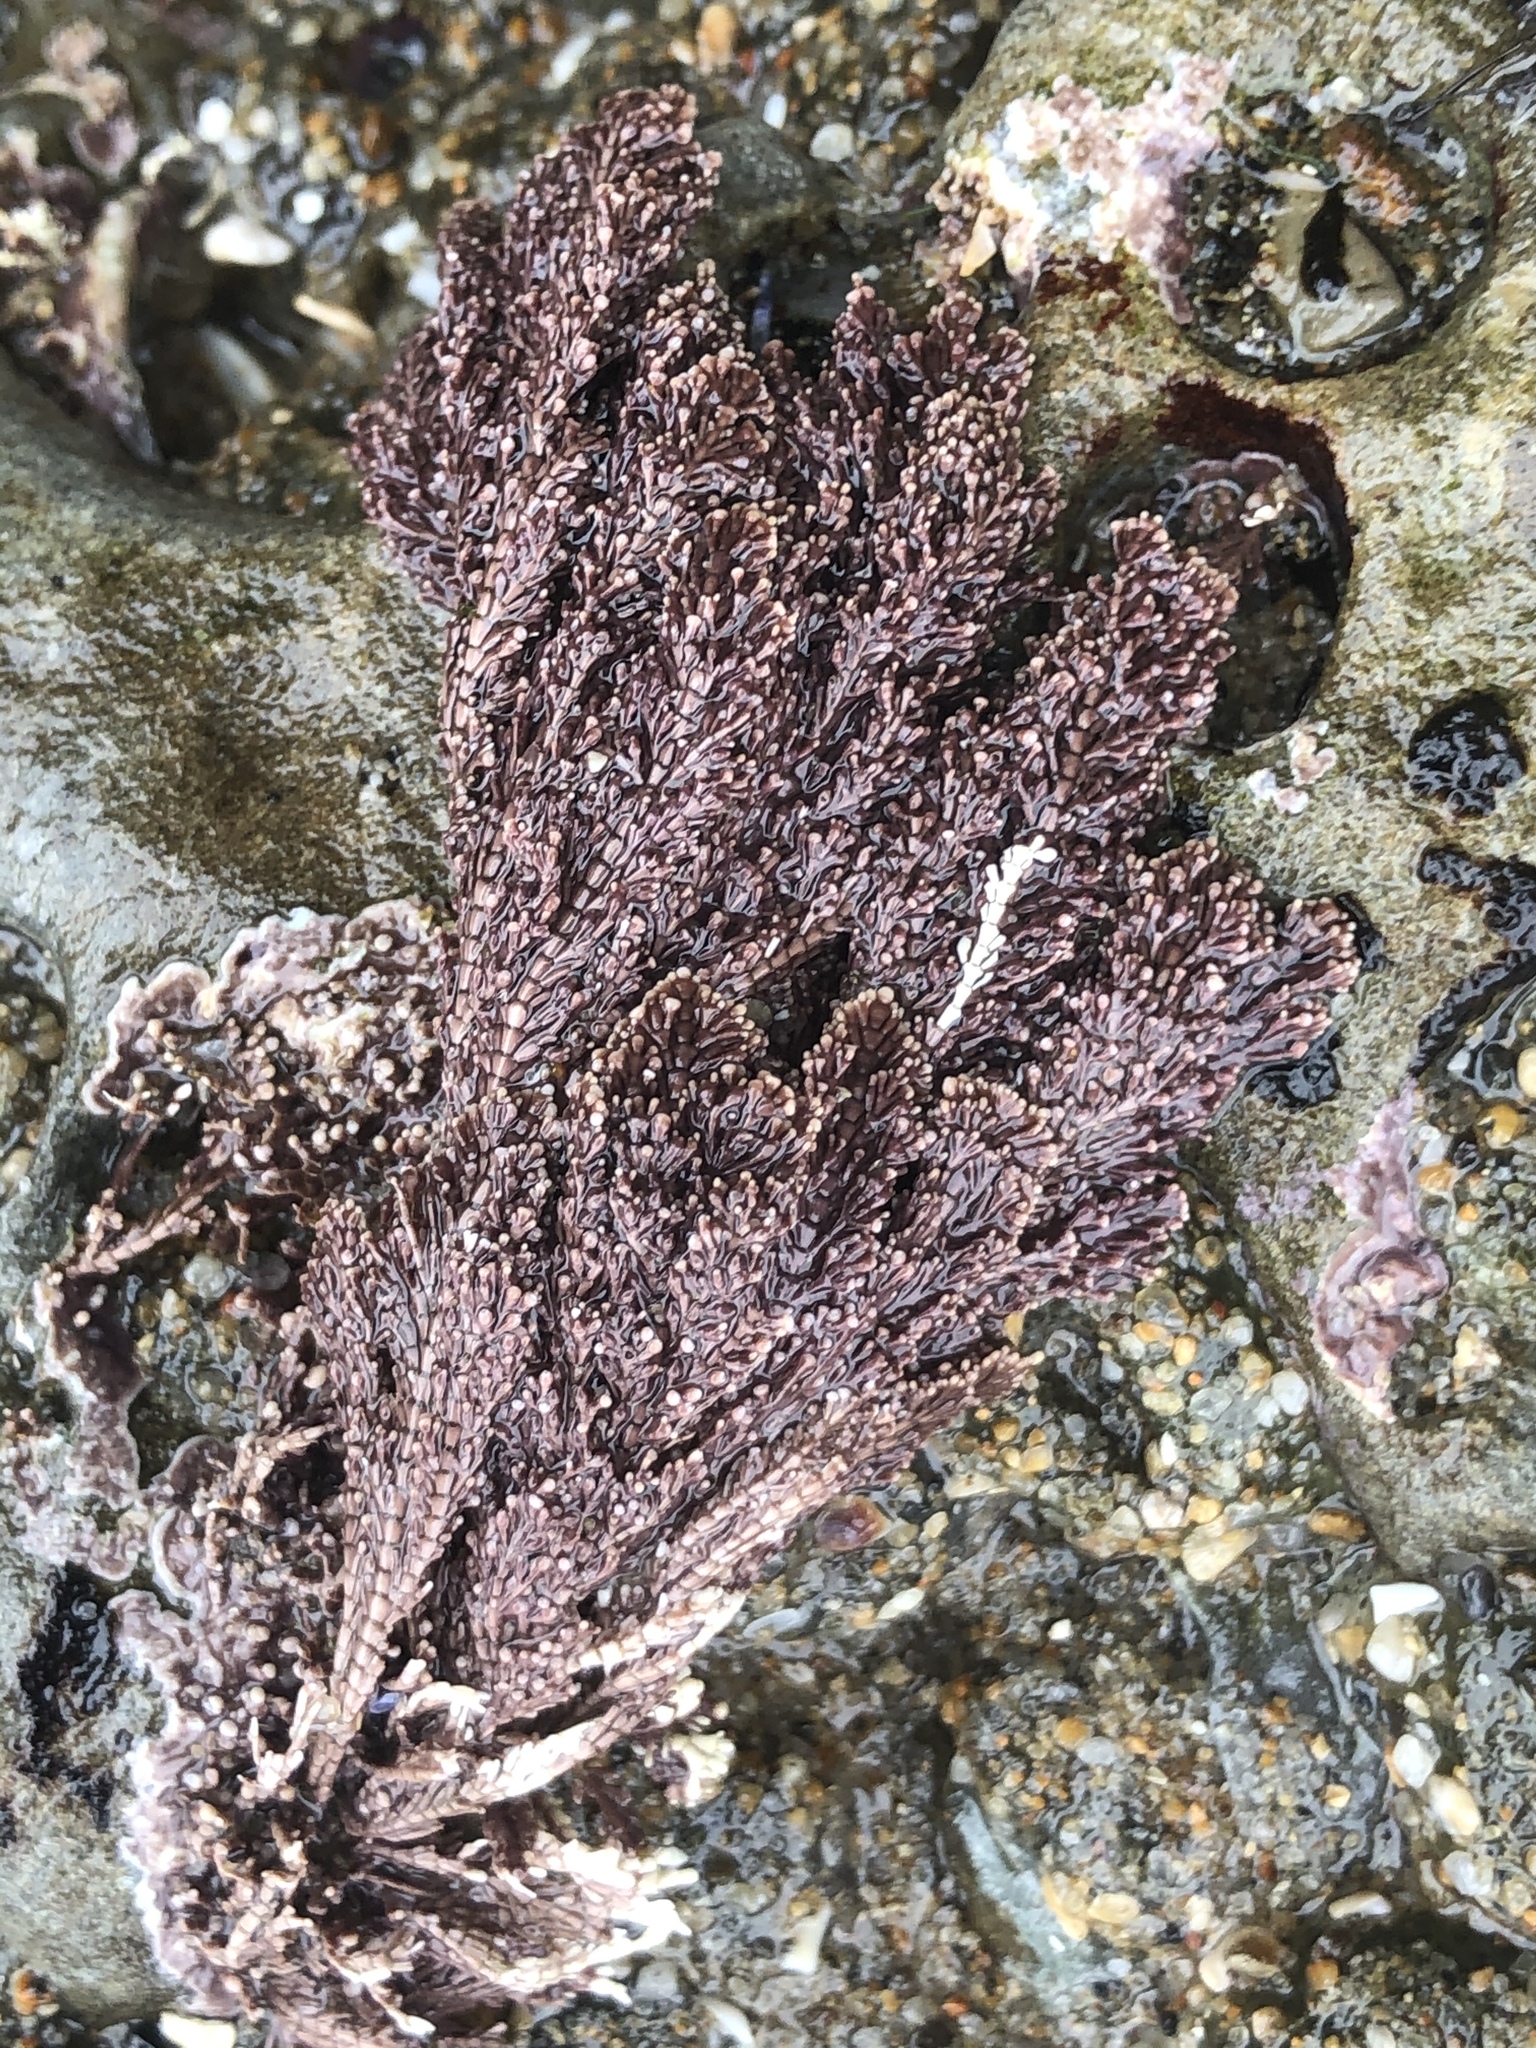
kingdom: Plantae
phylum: Rhodophyta
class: Florideophyceae
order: Corallinales
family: Corallinaceae
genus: Corallina
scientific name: Corallina vancouveriensis
